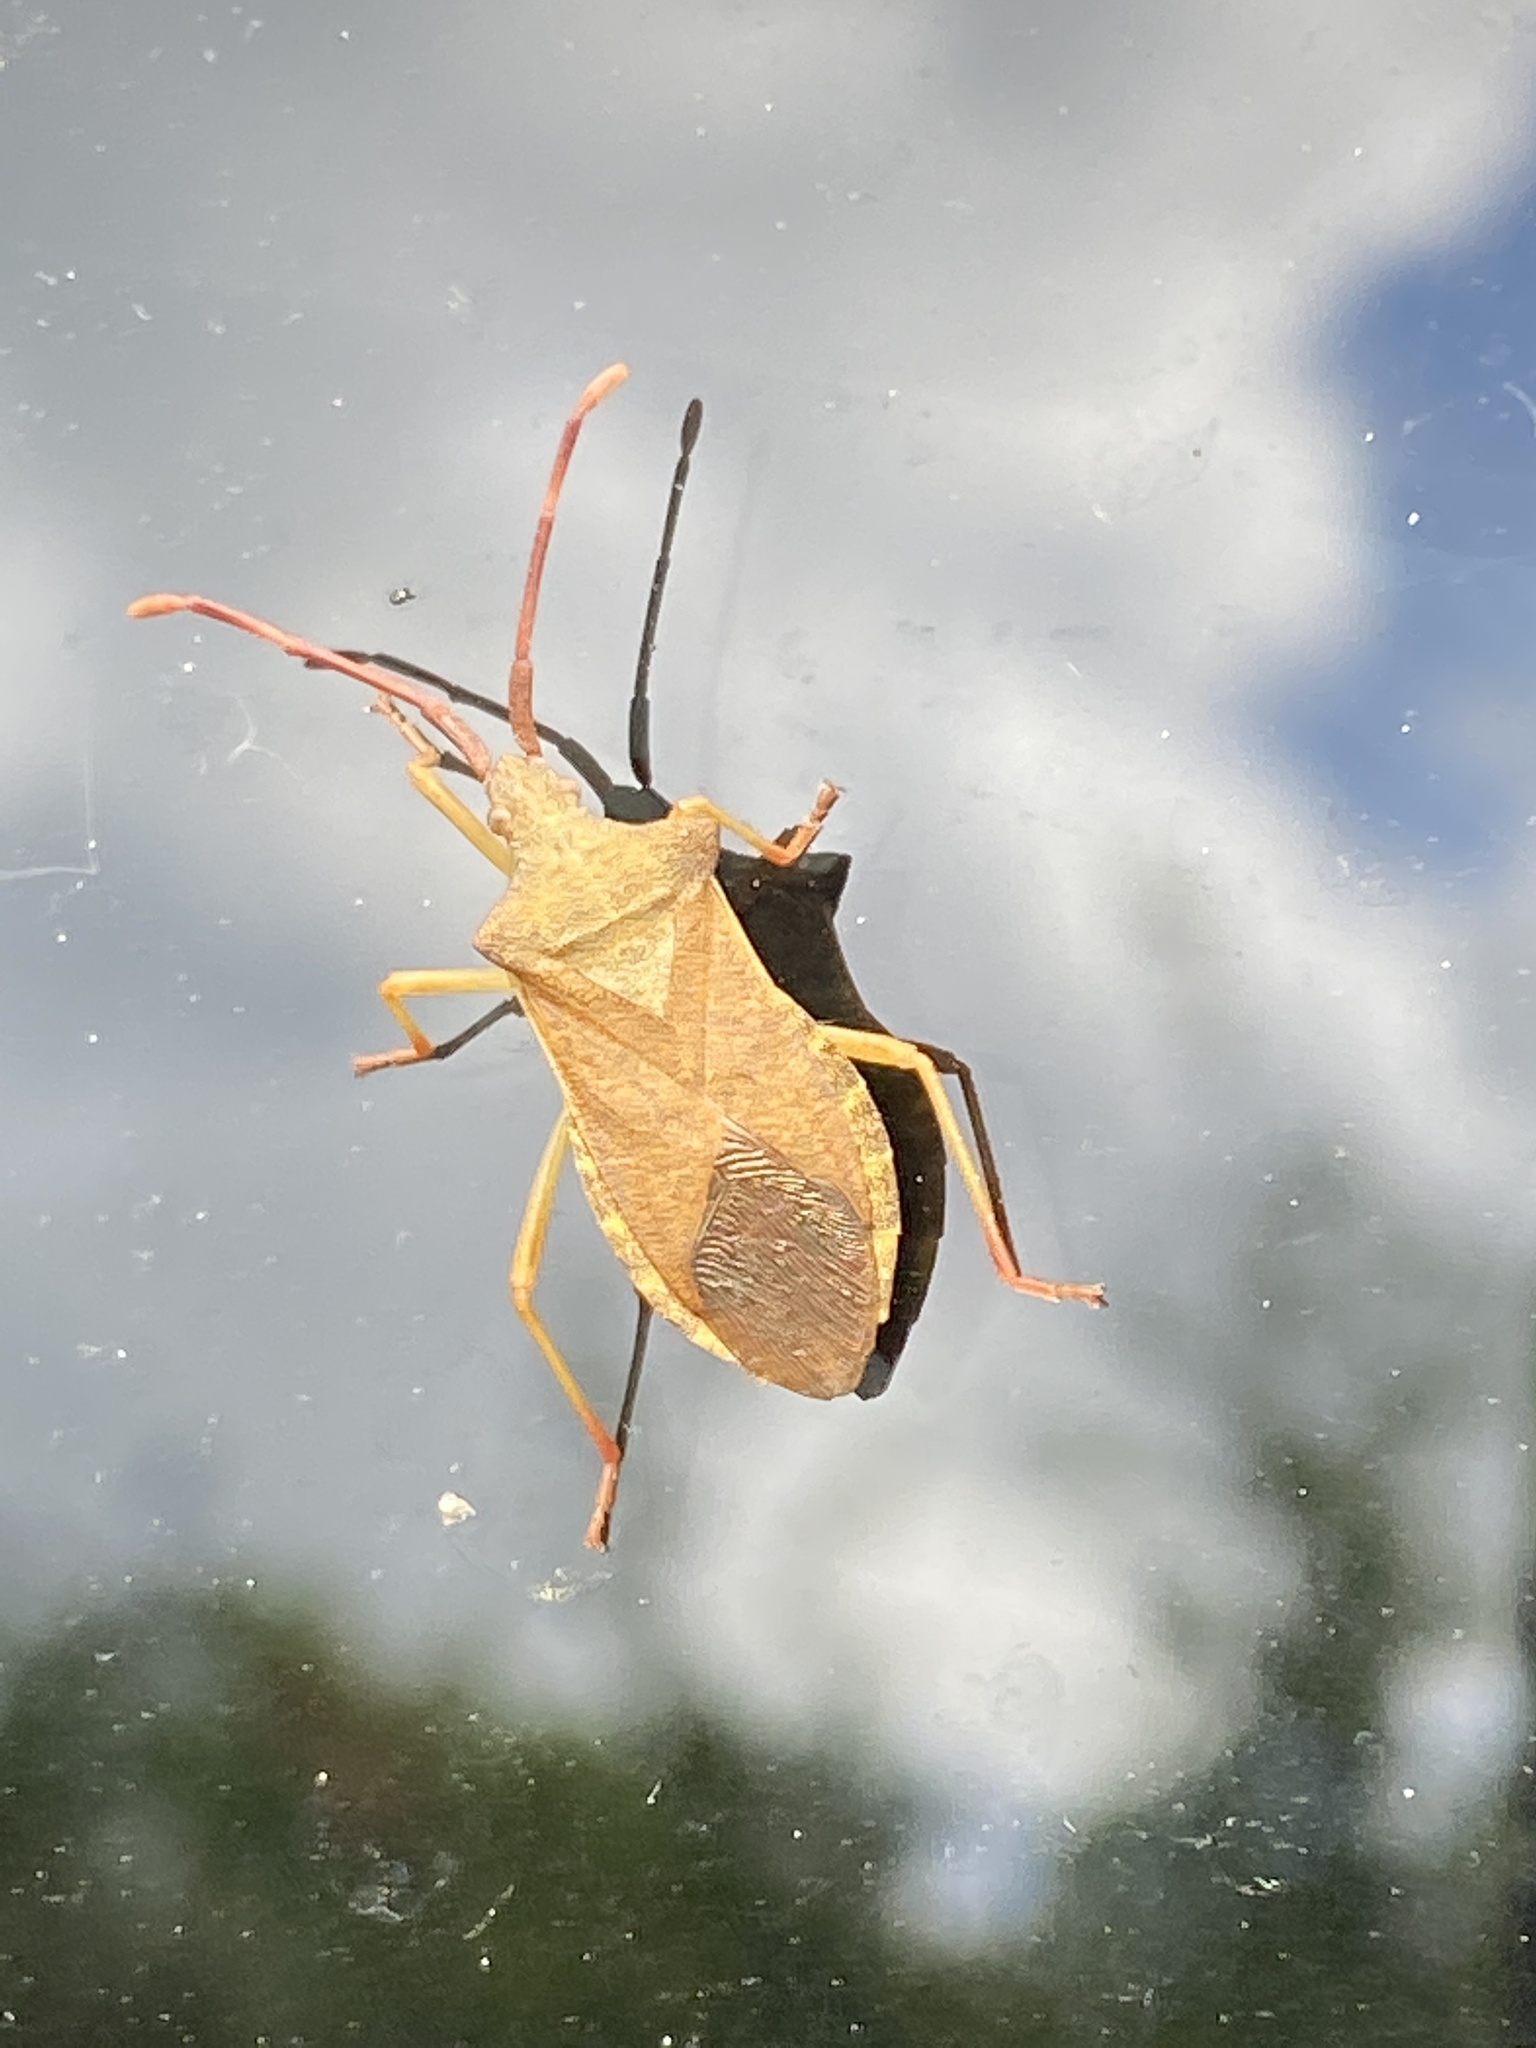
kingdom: Animalia
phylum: Arthropoda
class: Insecta
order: Hemiptera
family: Coreidae
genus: Gonocerus
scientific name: Gonocerus acuteangulatus
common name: Box bug
